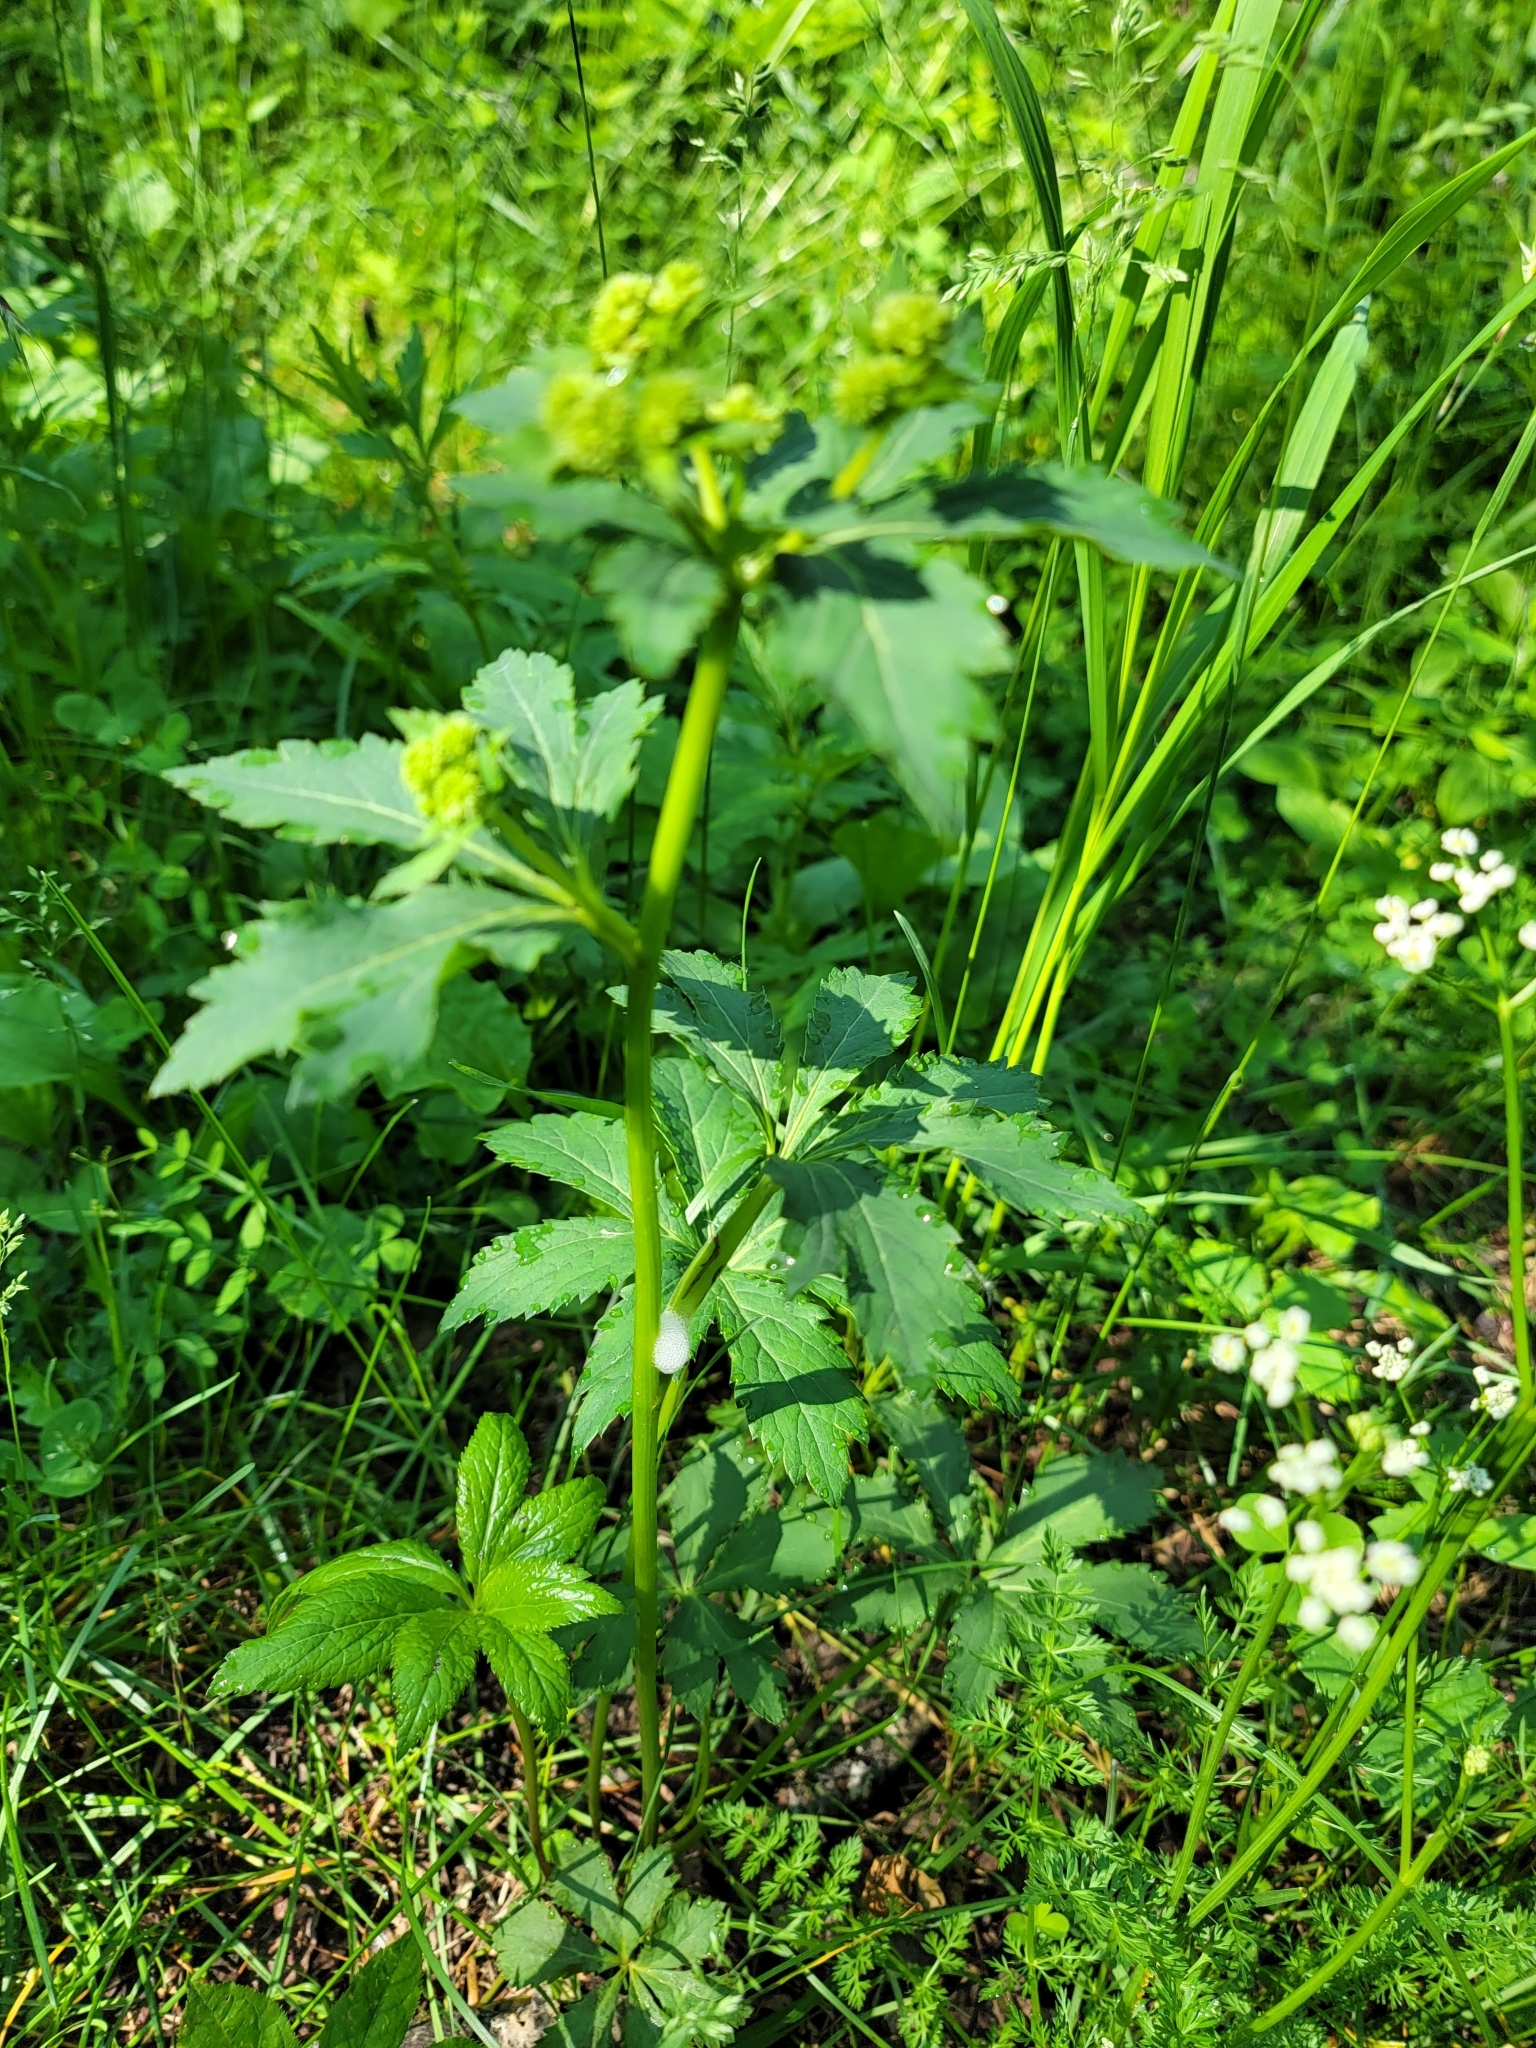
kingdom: Plantae
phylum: Tracheophyta
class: Magnoliopsida
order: Apiales
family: Apiaceae
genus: Sanicula
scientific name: Sanicula marilandica
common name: Black snakeroot
